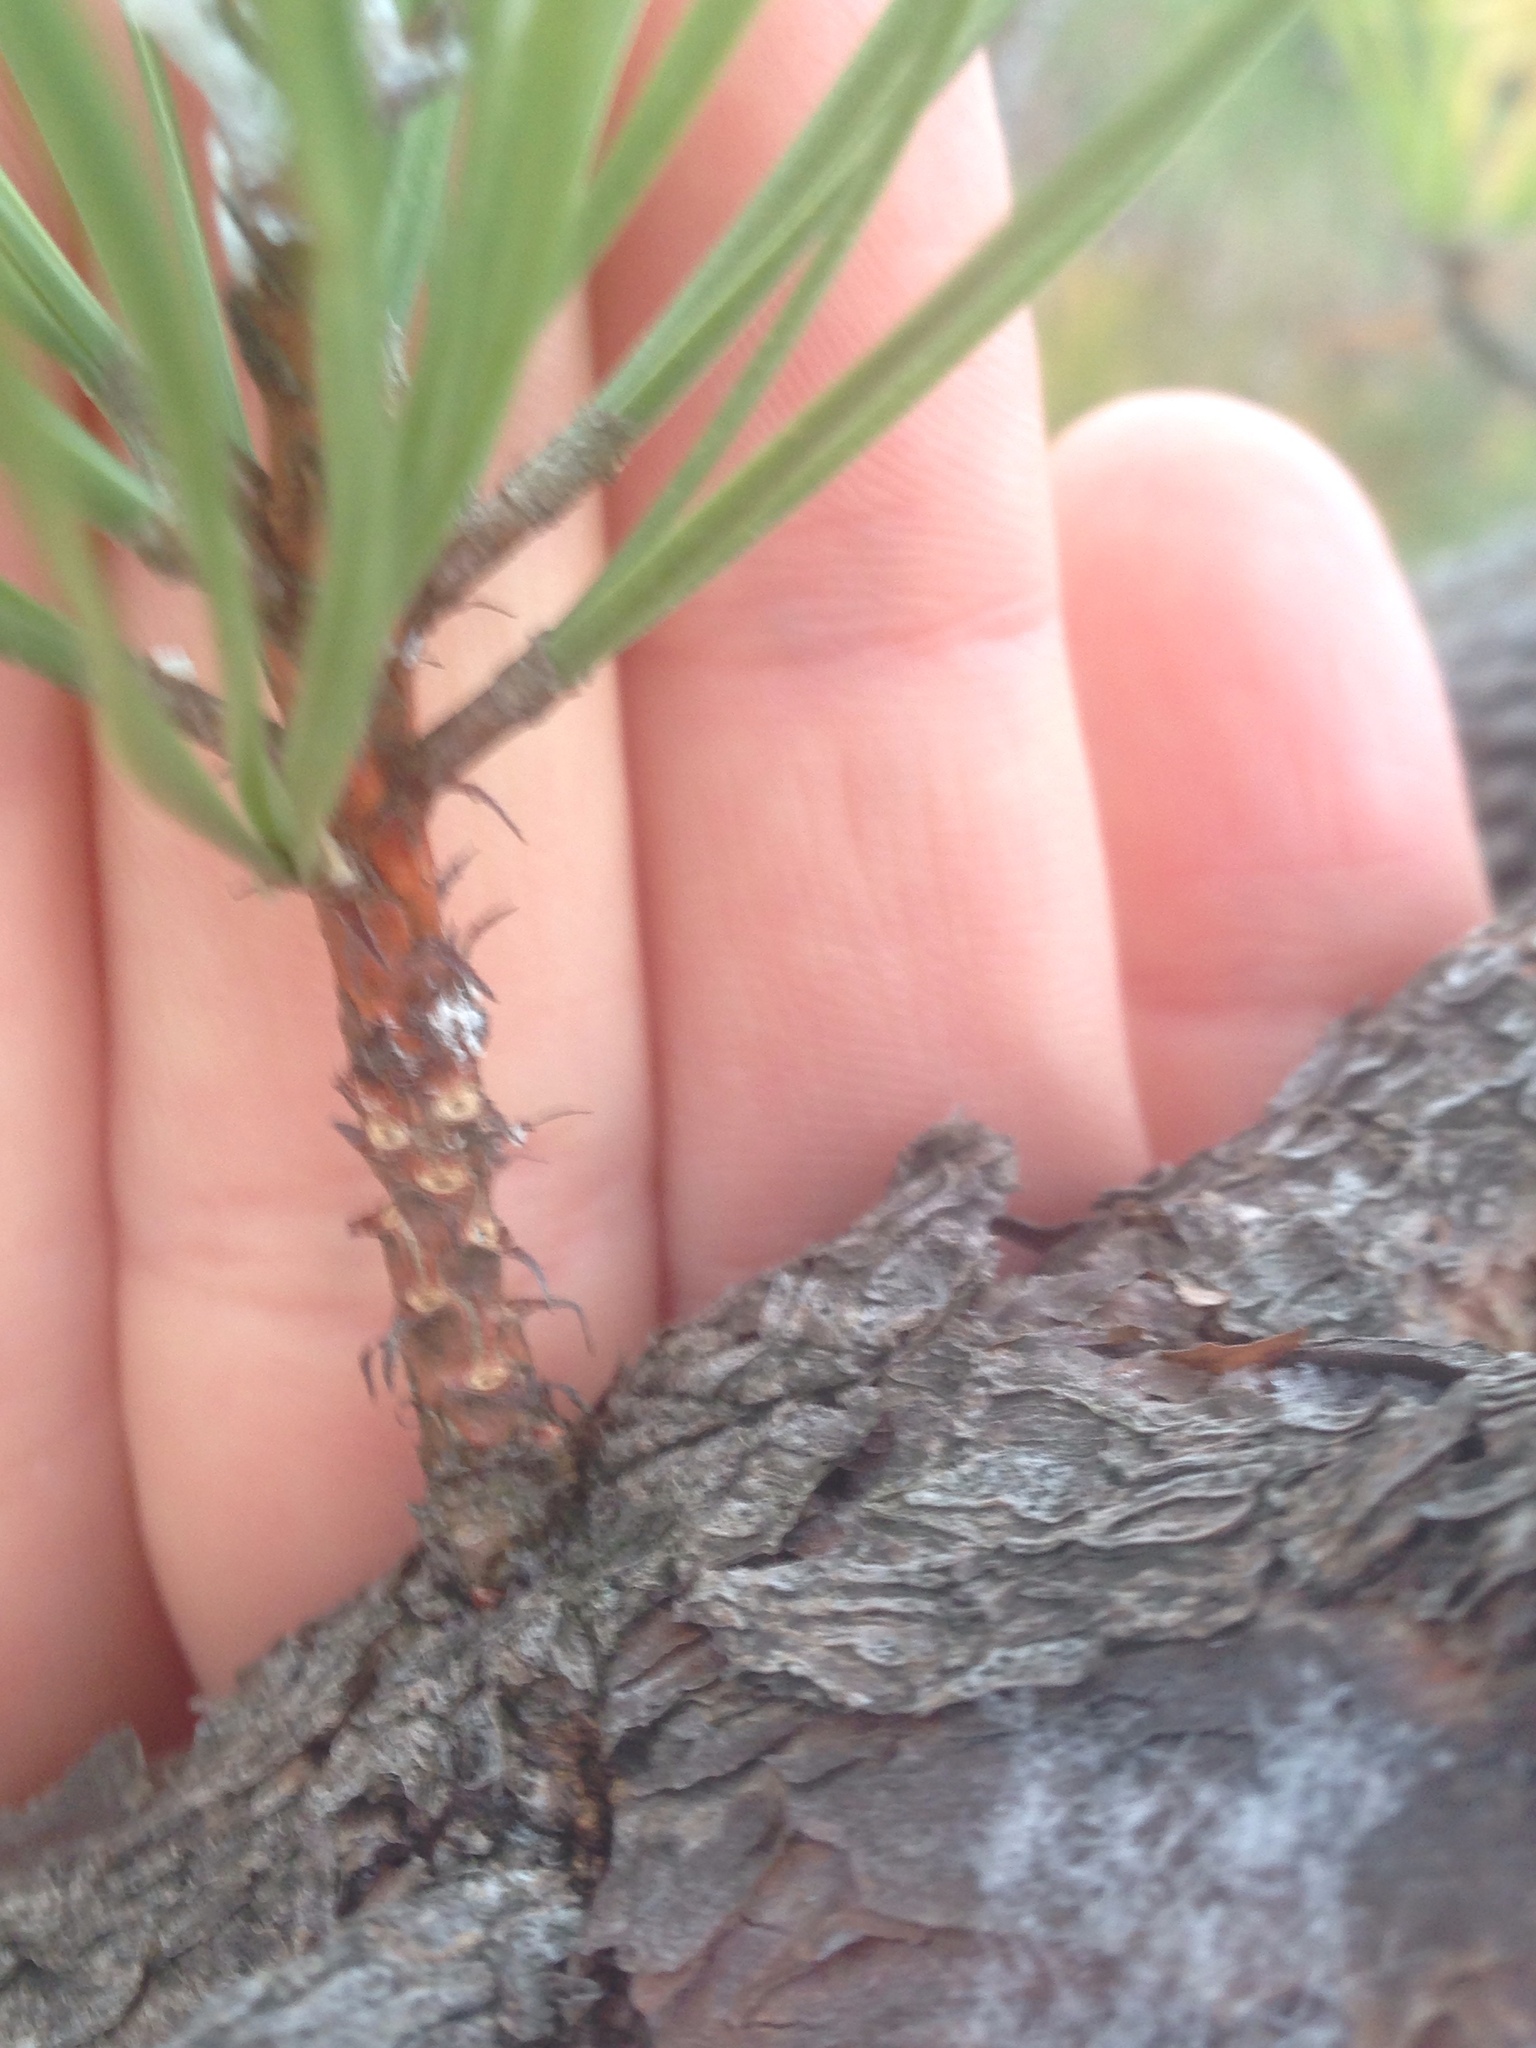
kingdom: Plantae
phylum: Tracheophyta
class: Pinopsida
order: Pinales
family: Pinaceae
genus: Pinus
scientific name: Pinus rigida
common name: Pitch pine
